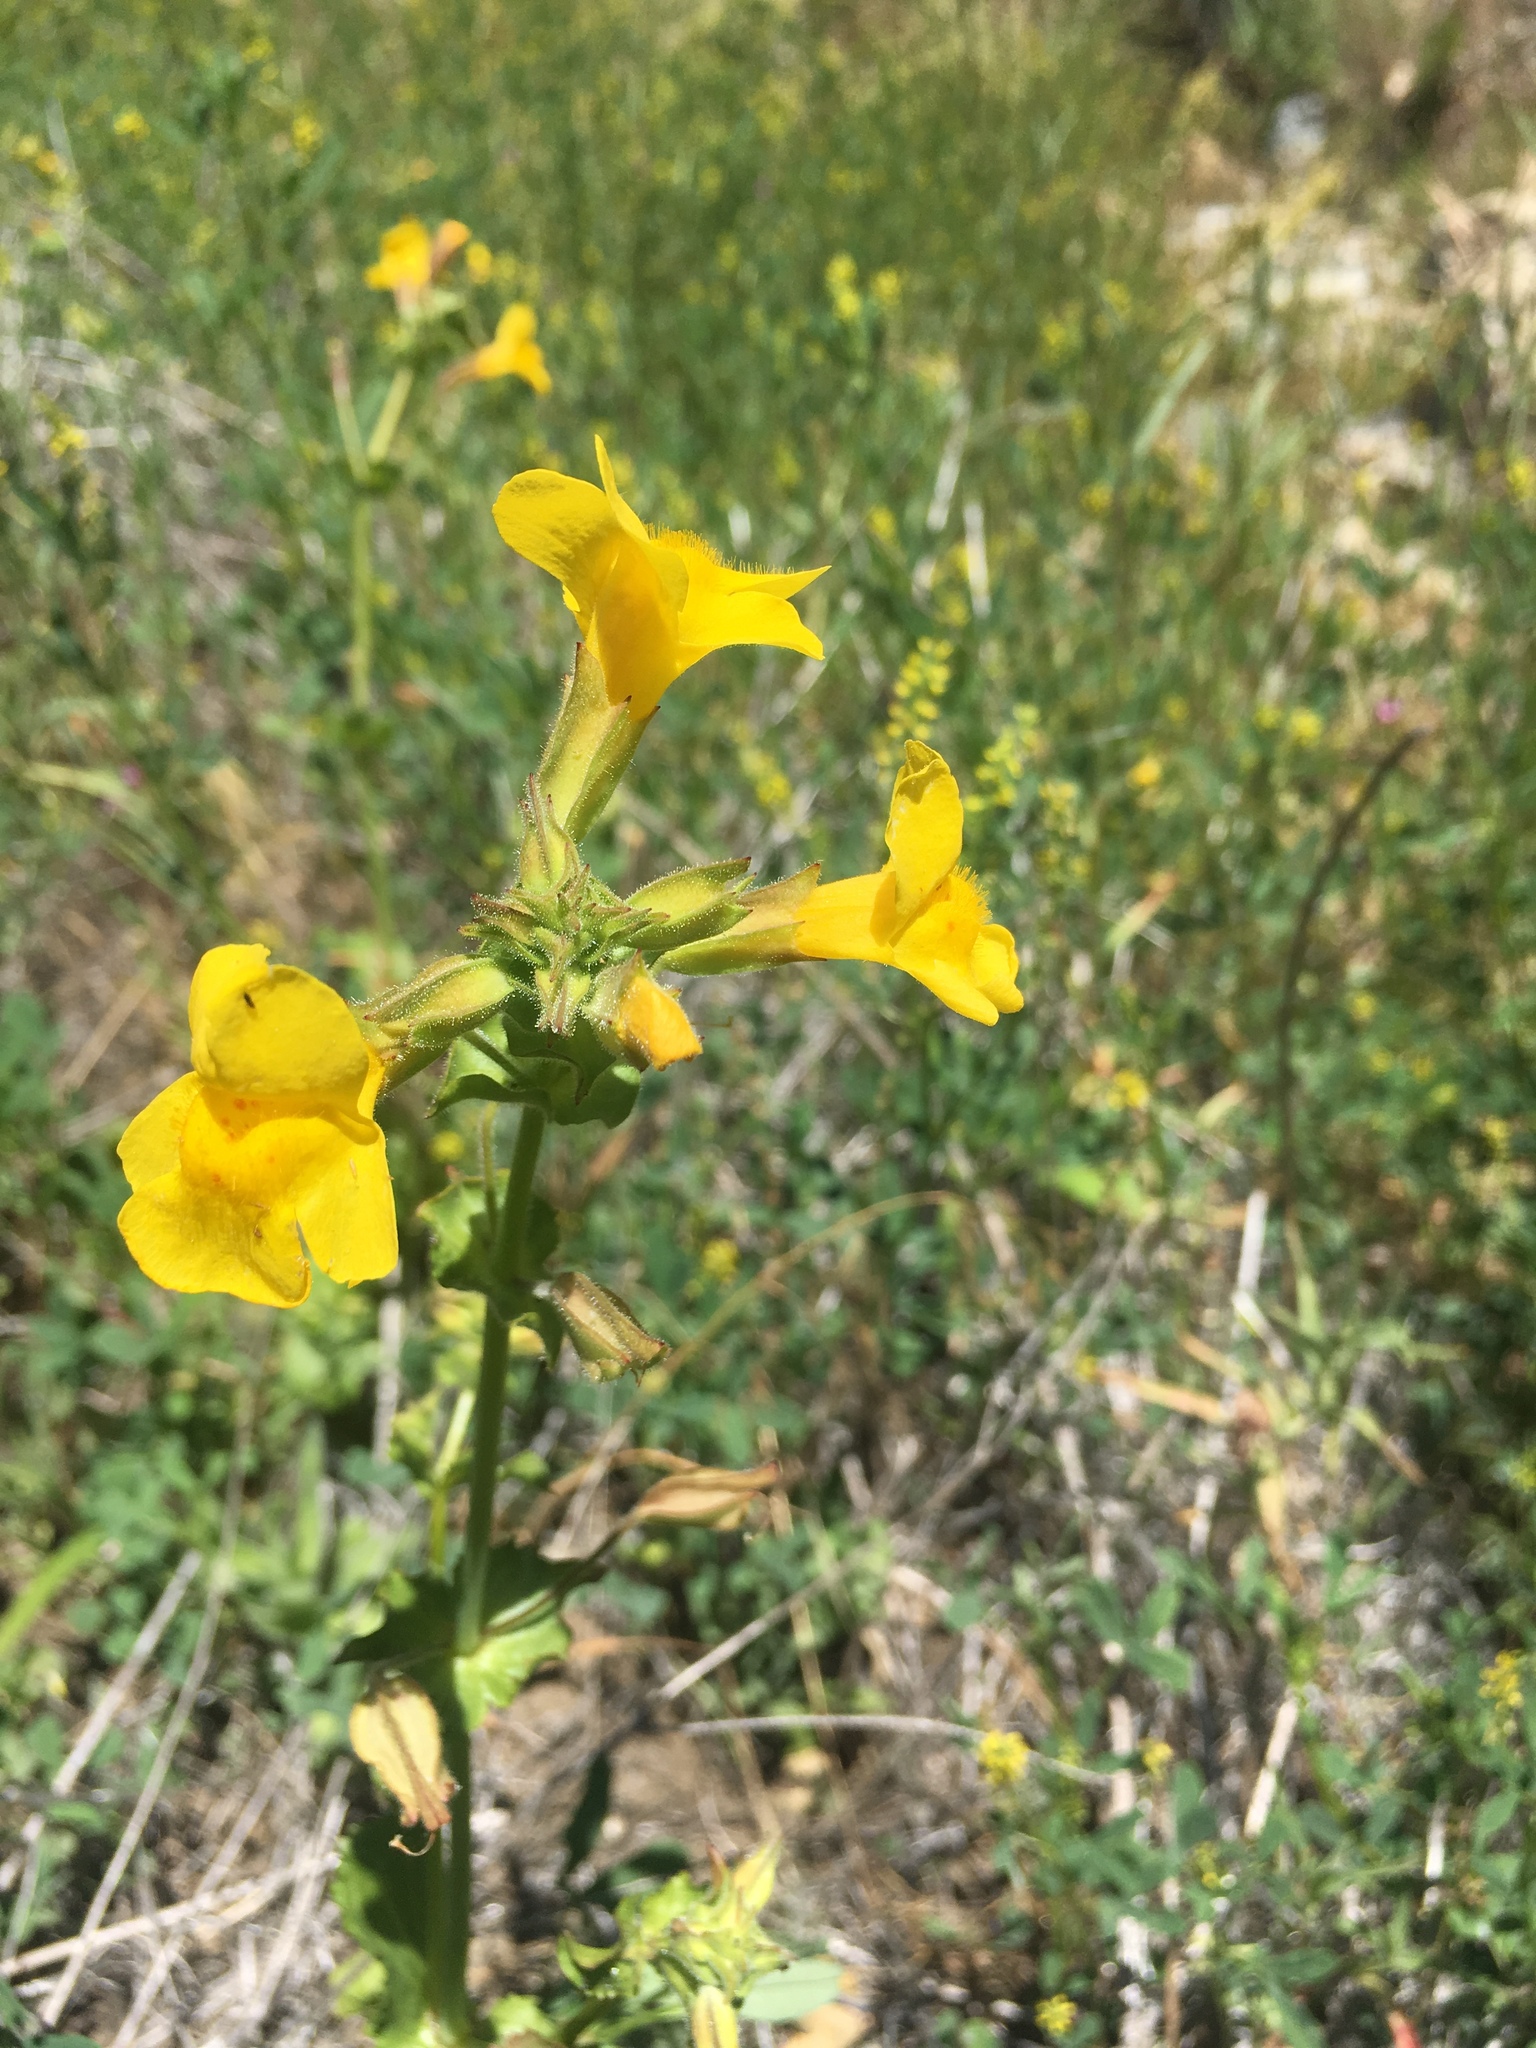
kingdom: Plantae
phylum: Tracheophyta
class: Magnoliopsida
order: Lamiales
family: Phrymaceae
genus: Erythranthe
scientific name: Erythranthe guttata
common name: Monkeyflower
